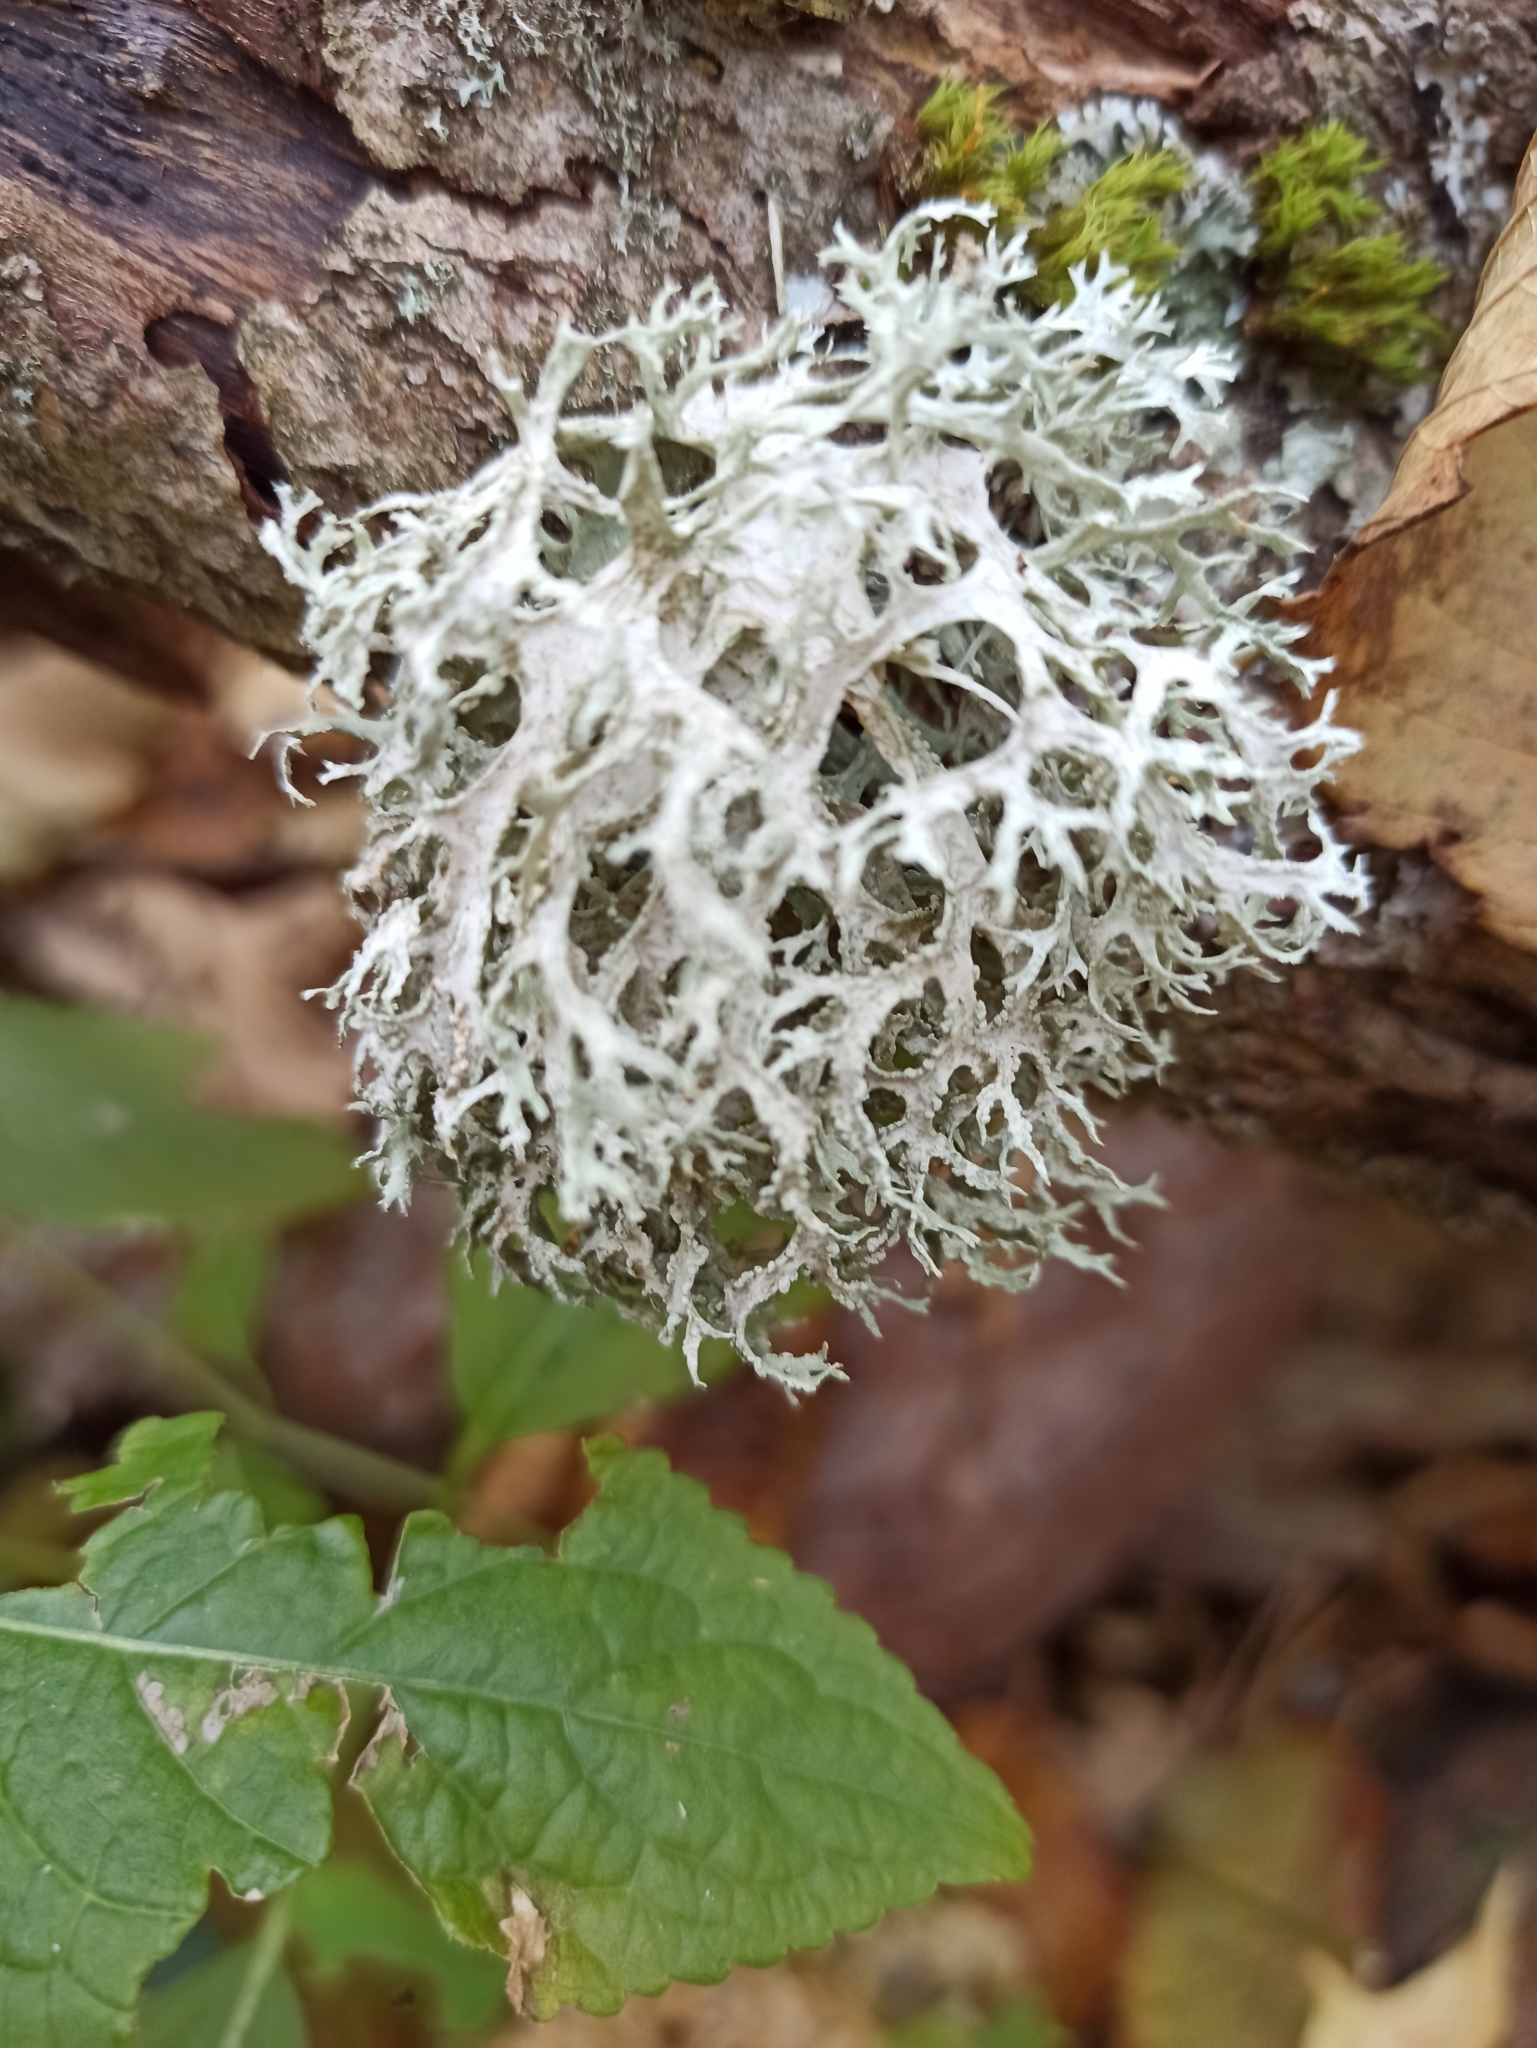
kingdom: Fungi
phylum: Ascomycota
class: Lecanoromycetes
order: Lecanorales
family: Parmeliaceae
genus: Evernia
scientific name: Evernia prunastri
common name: Oak moss
